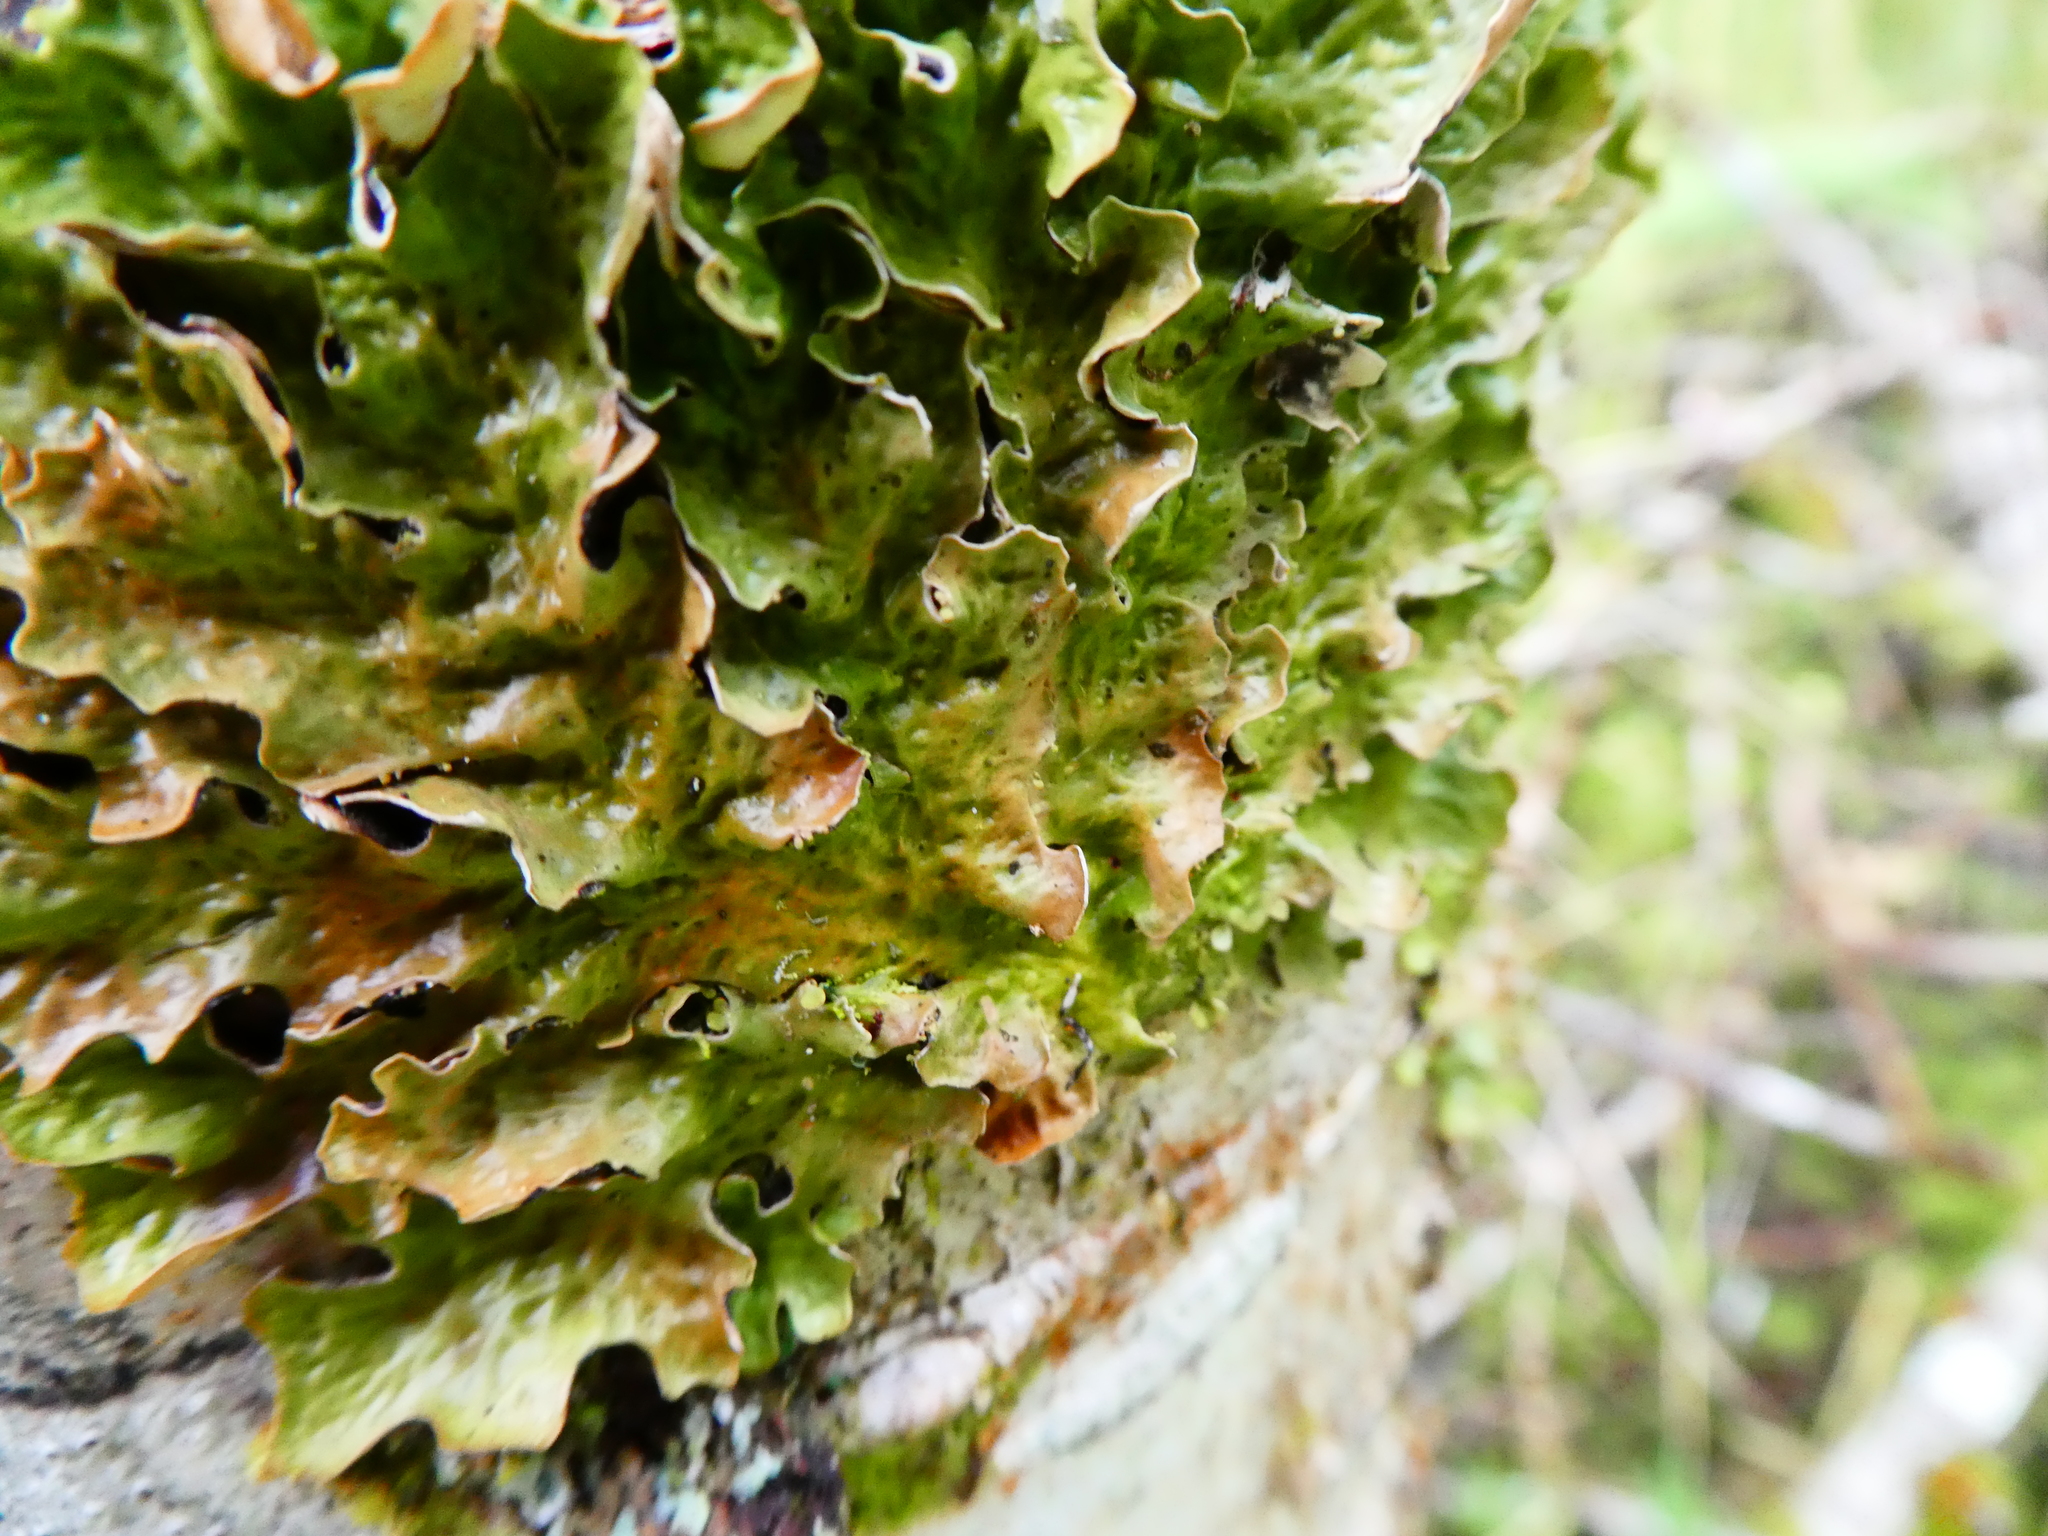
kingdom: Fungi
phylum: Ascomycota
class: Lecanoromycetes
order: Peltigerales
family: Lobariaceae
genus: Lobaria
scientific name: Lobaria pulmonaria
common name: Lungwort
